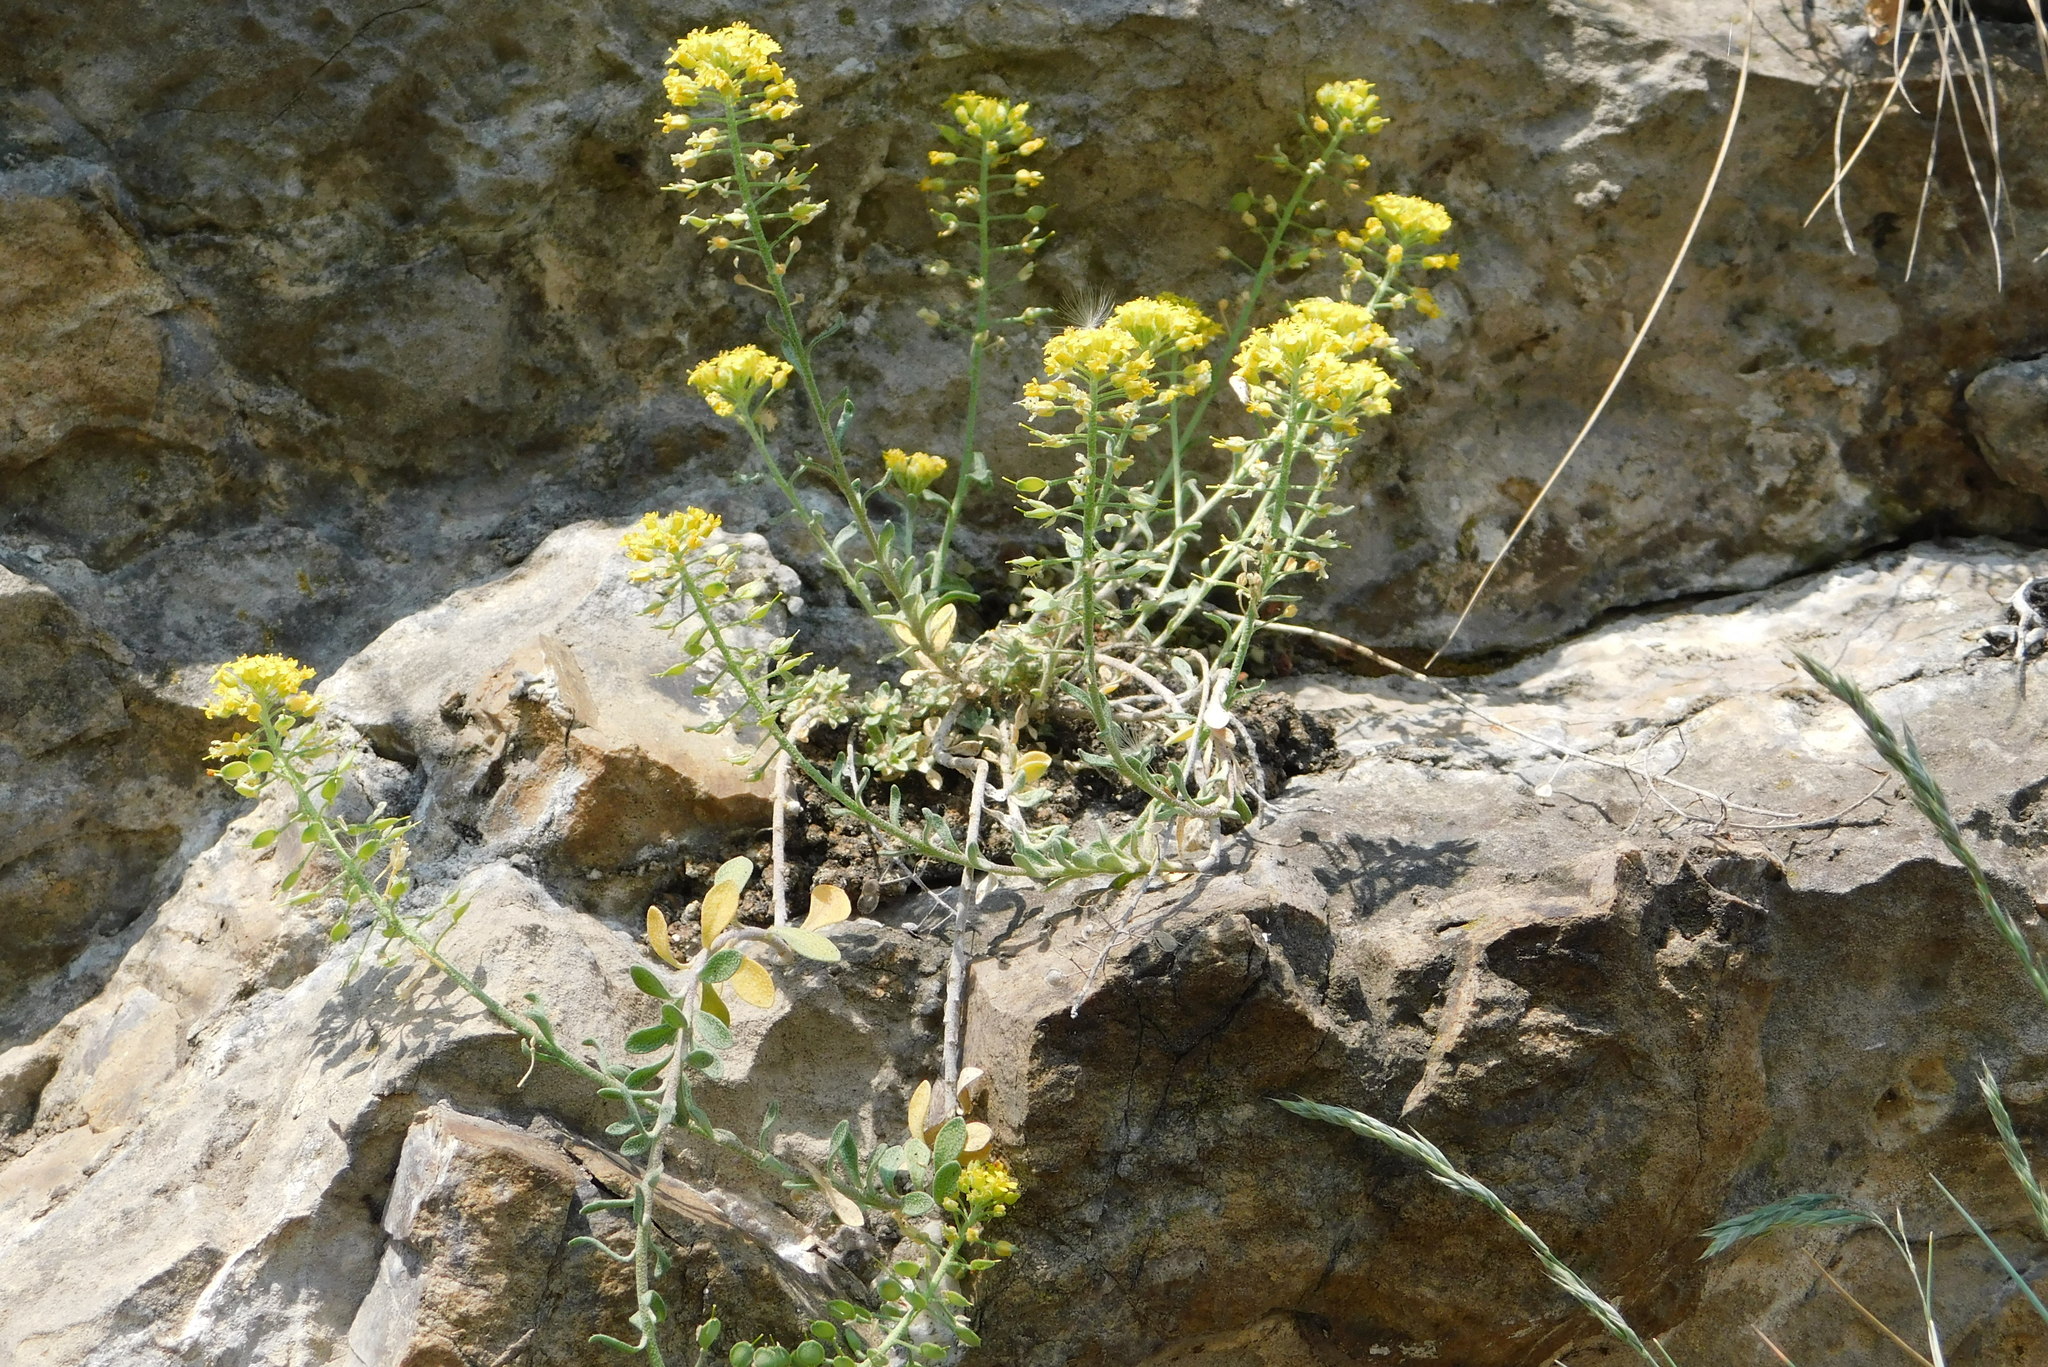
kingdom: Plantae
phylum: Tracheophyta
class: Magnoliopsida
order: Brassicales
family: Brassicaceae
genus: Alyssum
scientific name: Alyssum gmelinii
